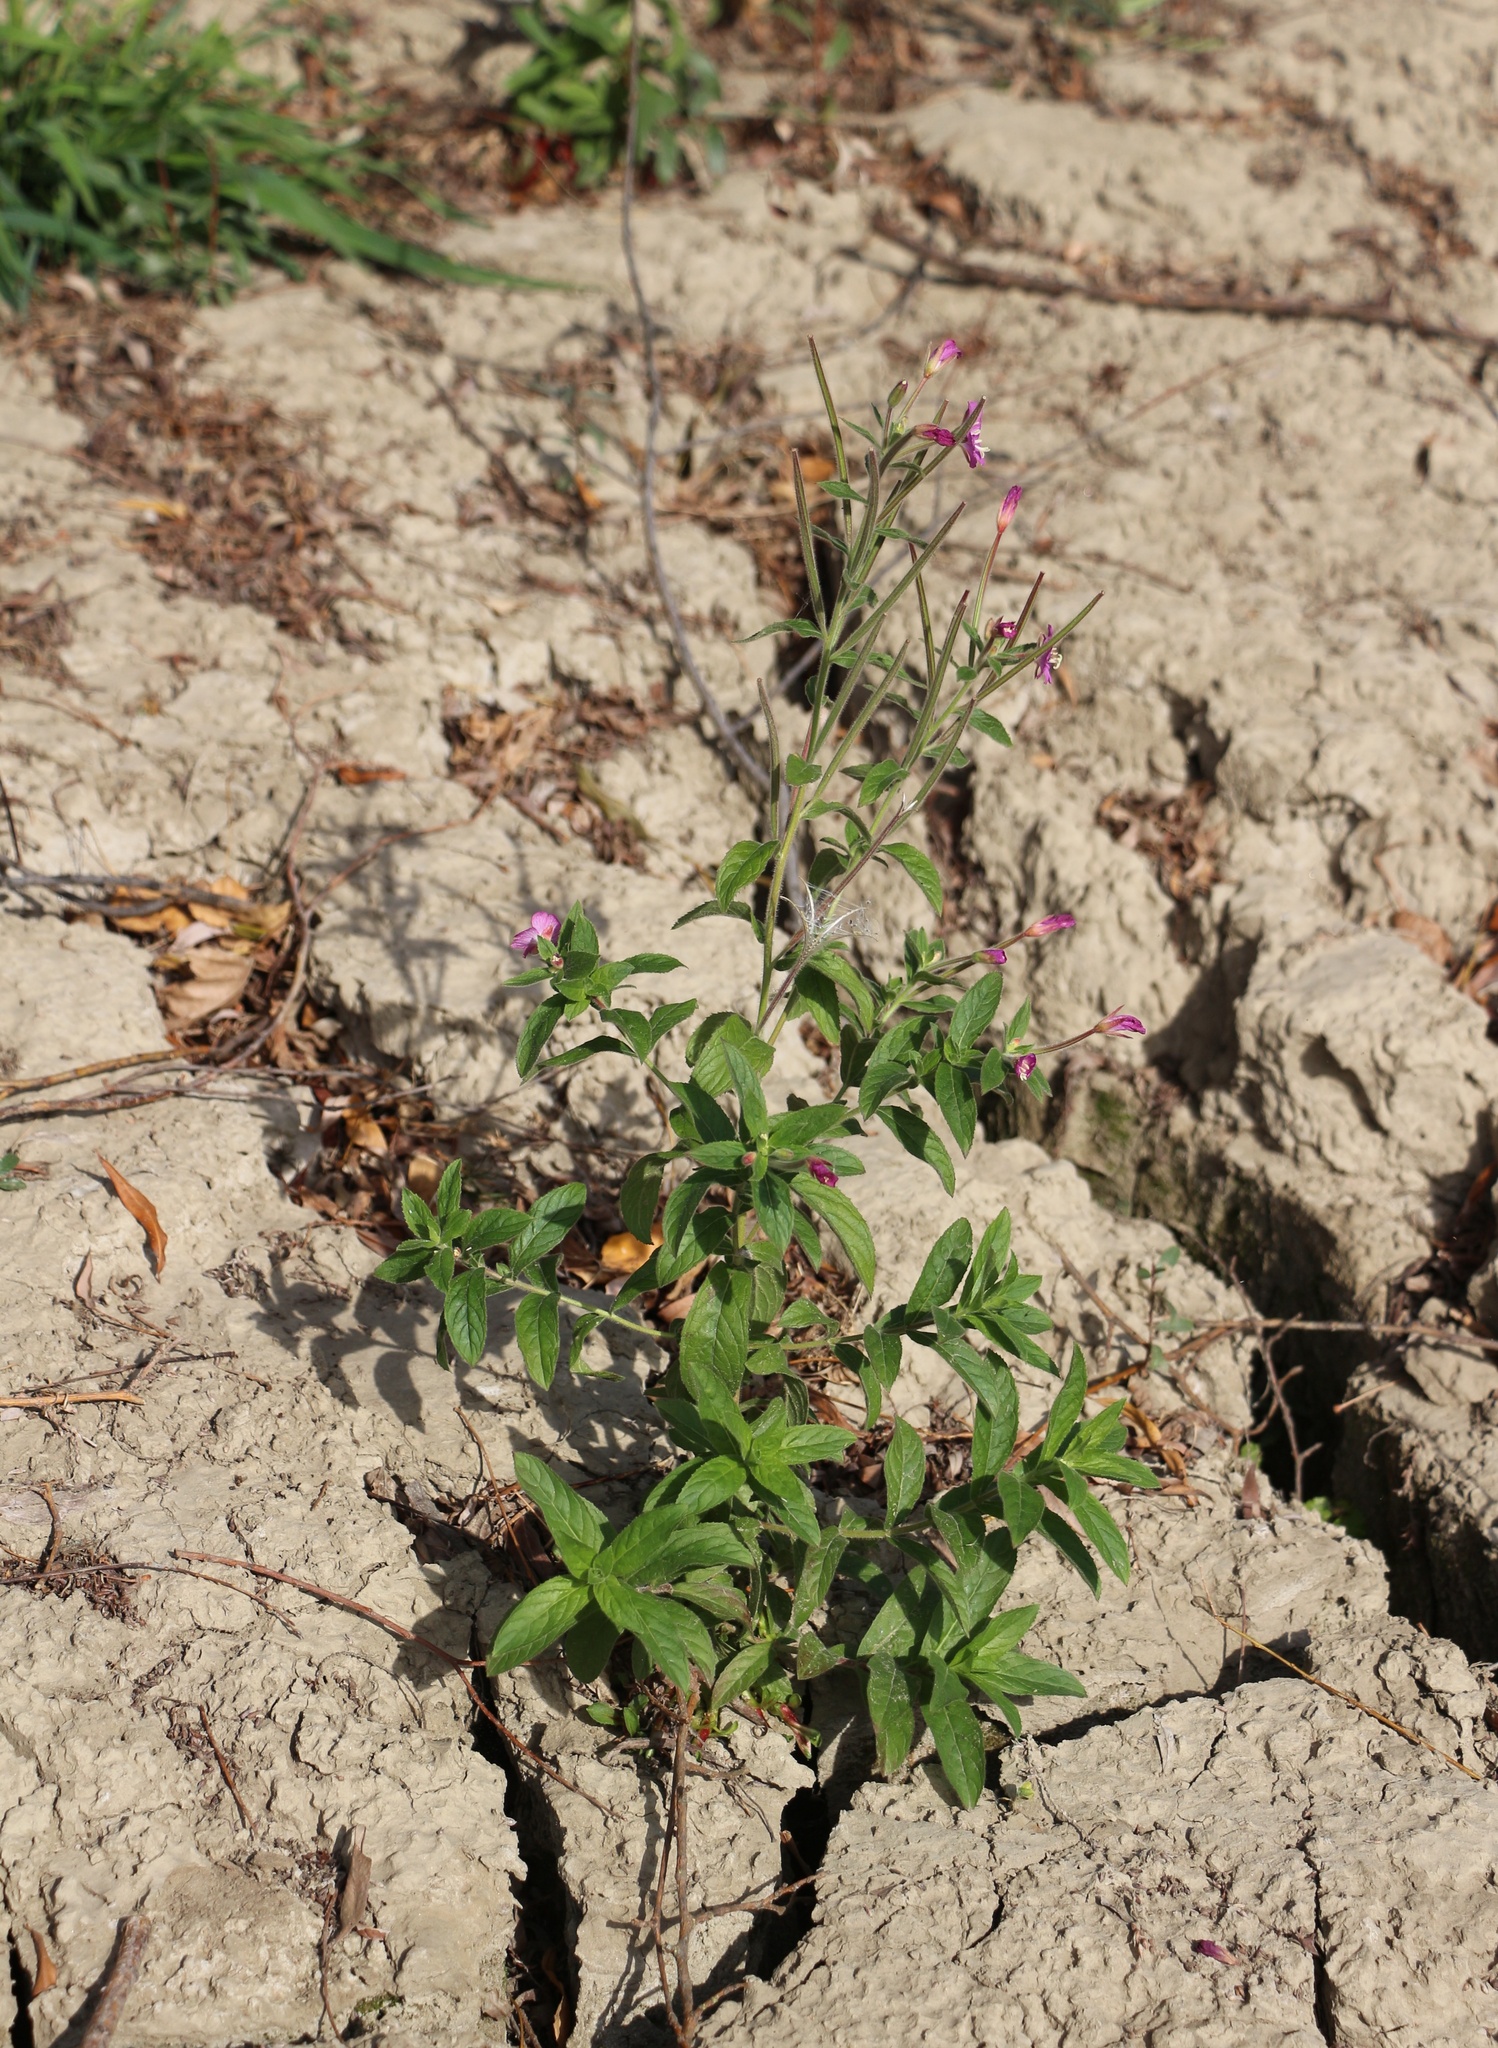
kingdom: Plantae
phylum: Tracheophyta
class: Magnoliopsida
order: Myrtales
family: Onagraceae
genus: Epilobium
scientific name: Epilobium hirsutum
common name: Great willowherb
